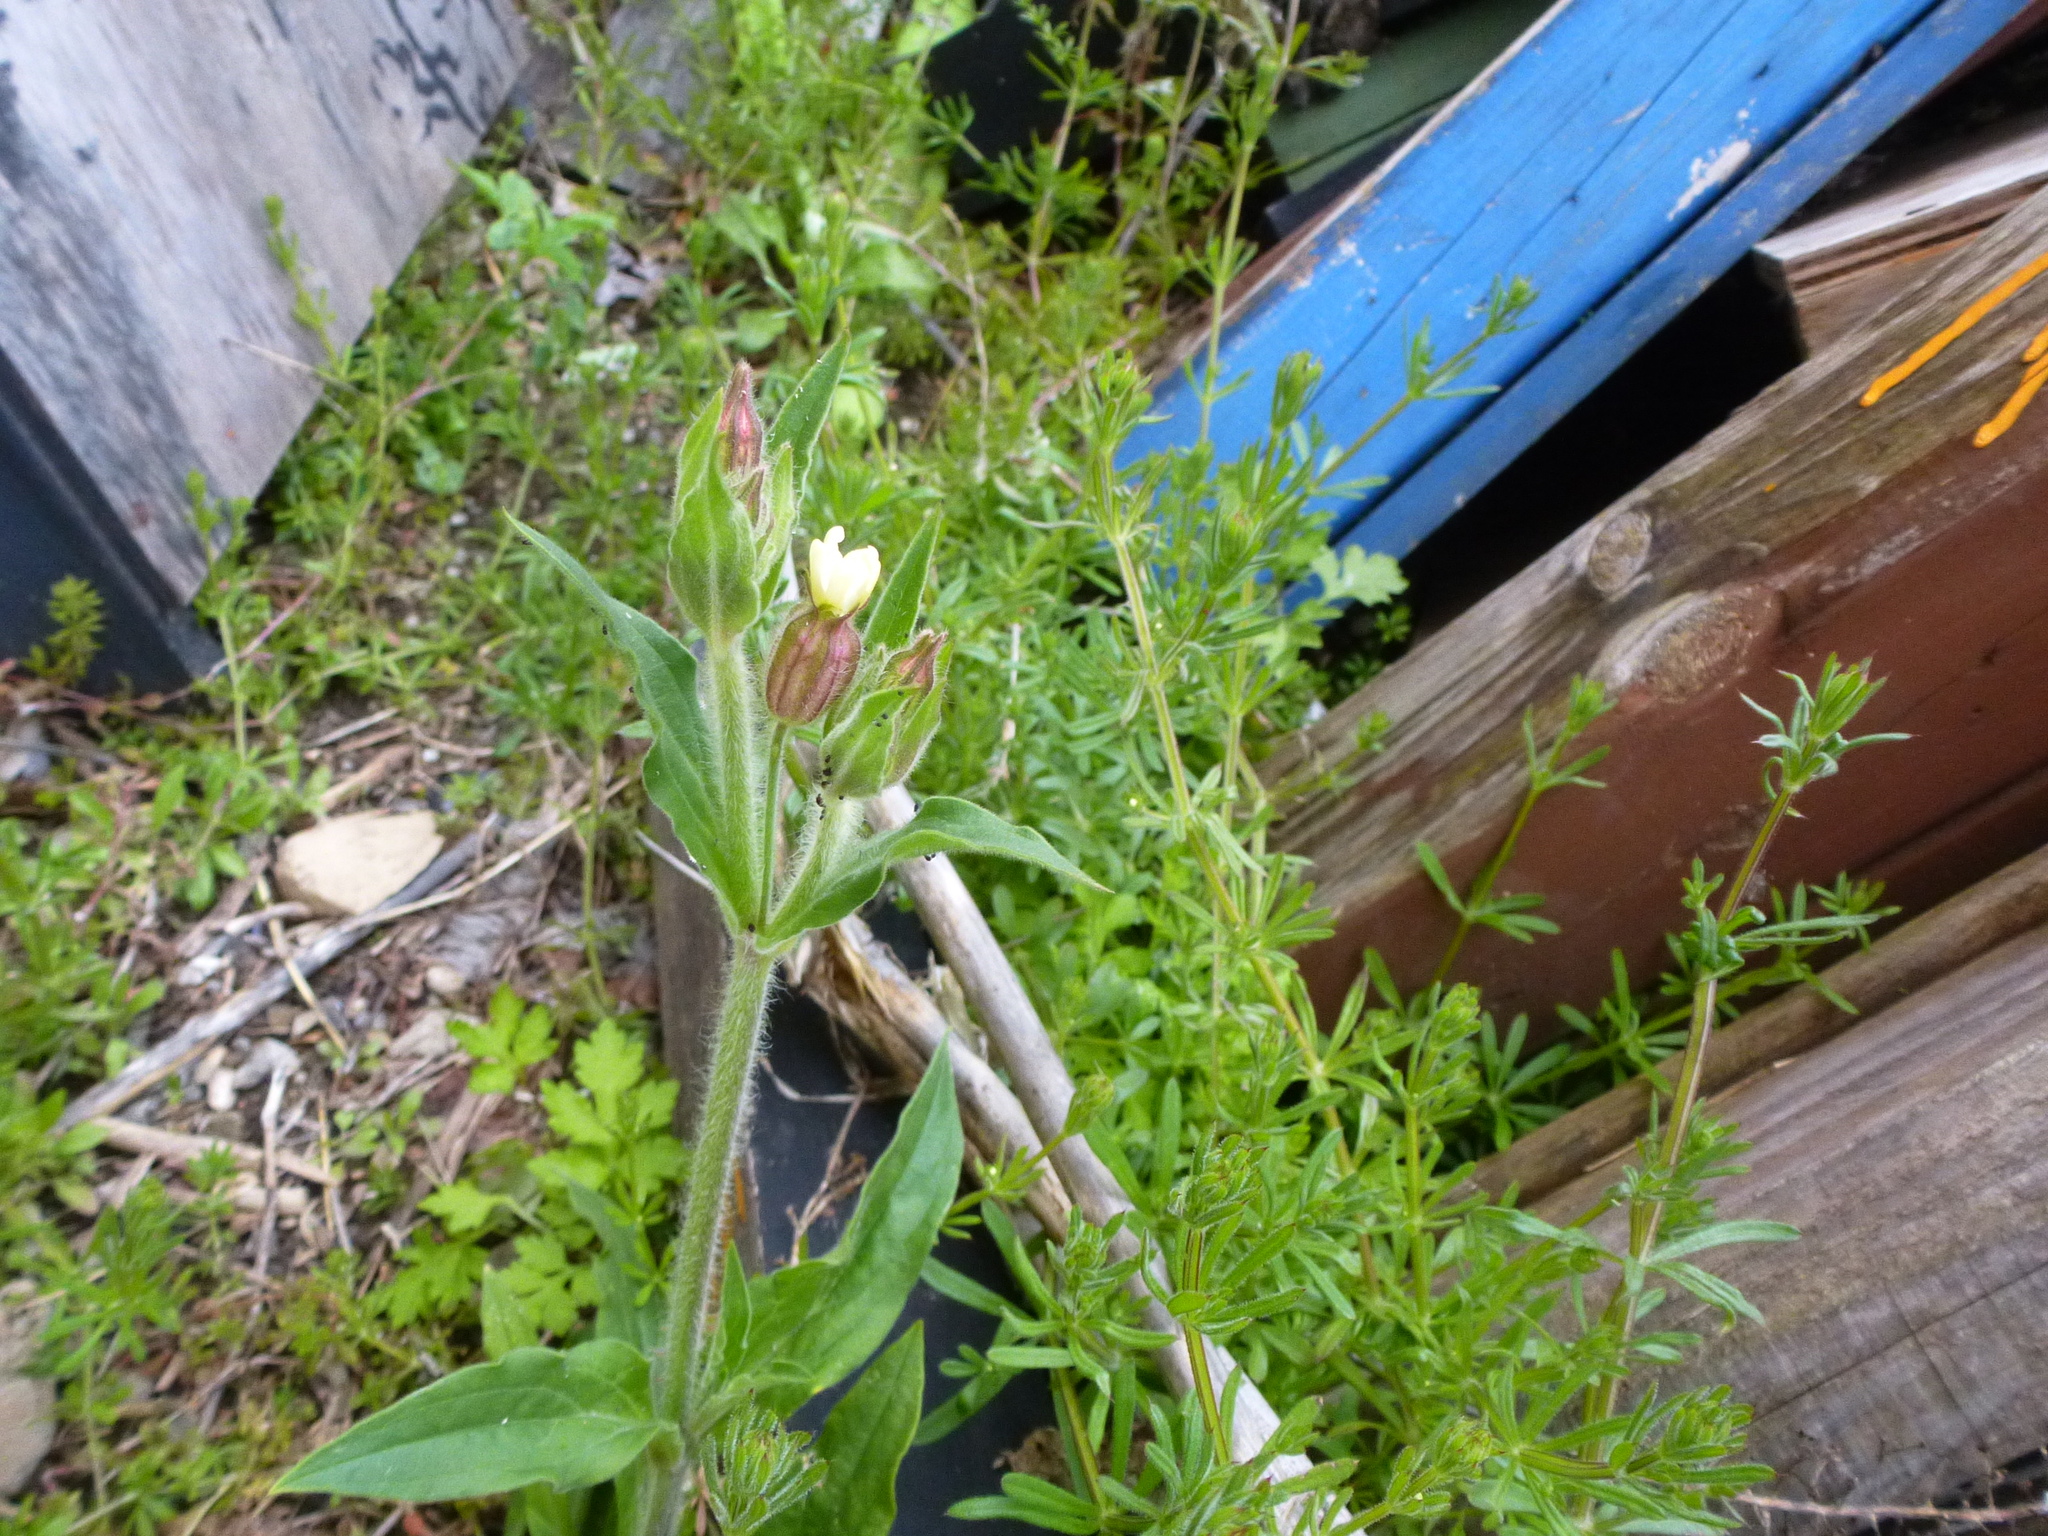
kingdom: Plantae
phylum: Tracheophyta
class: Magnoliopsida
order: Caryophyllales
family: Caryophyllaceae
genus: Silene
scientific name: Silene latifolia
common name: White campion
